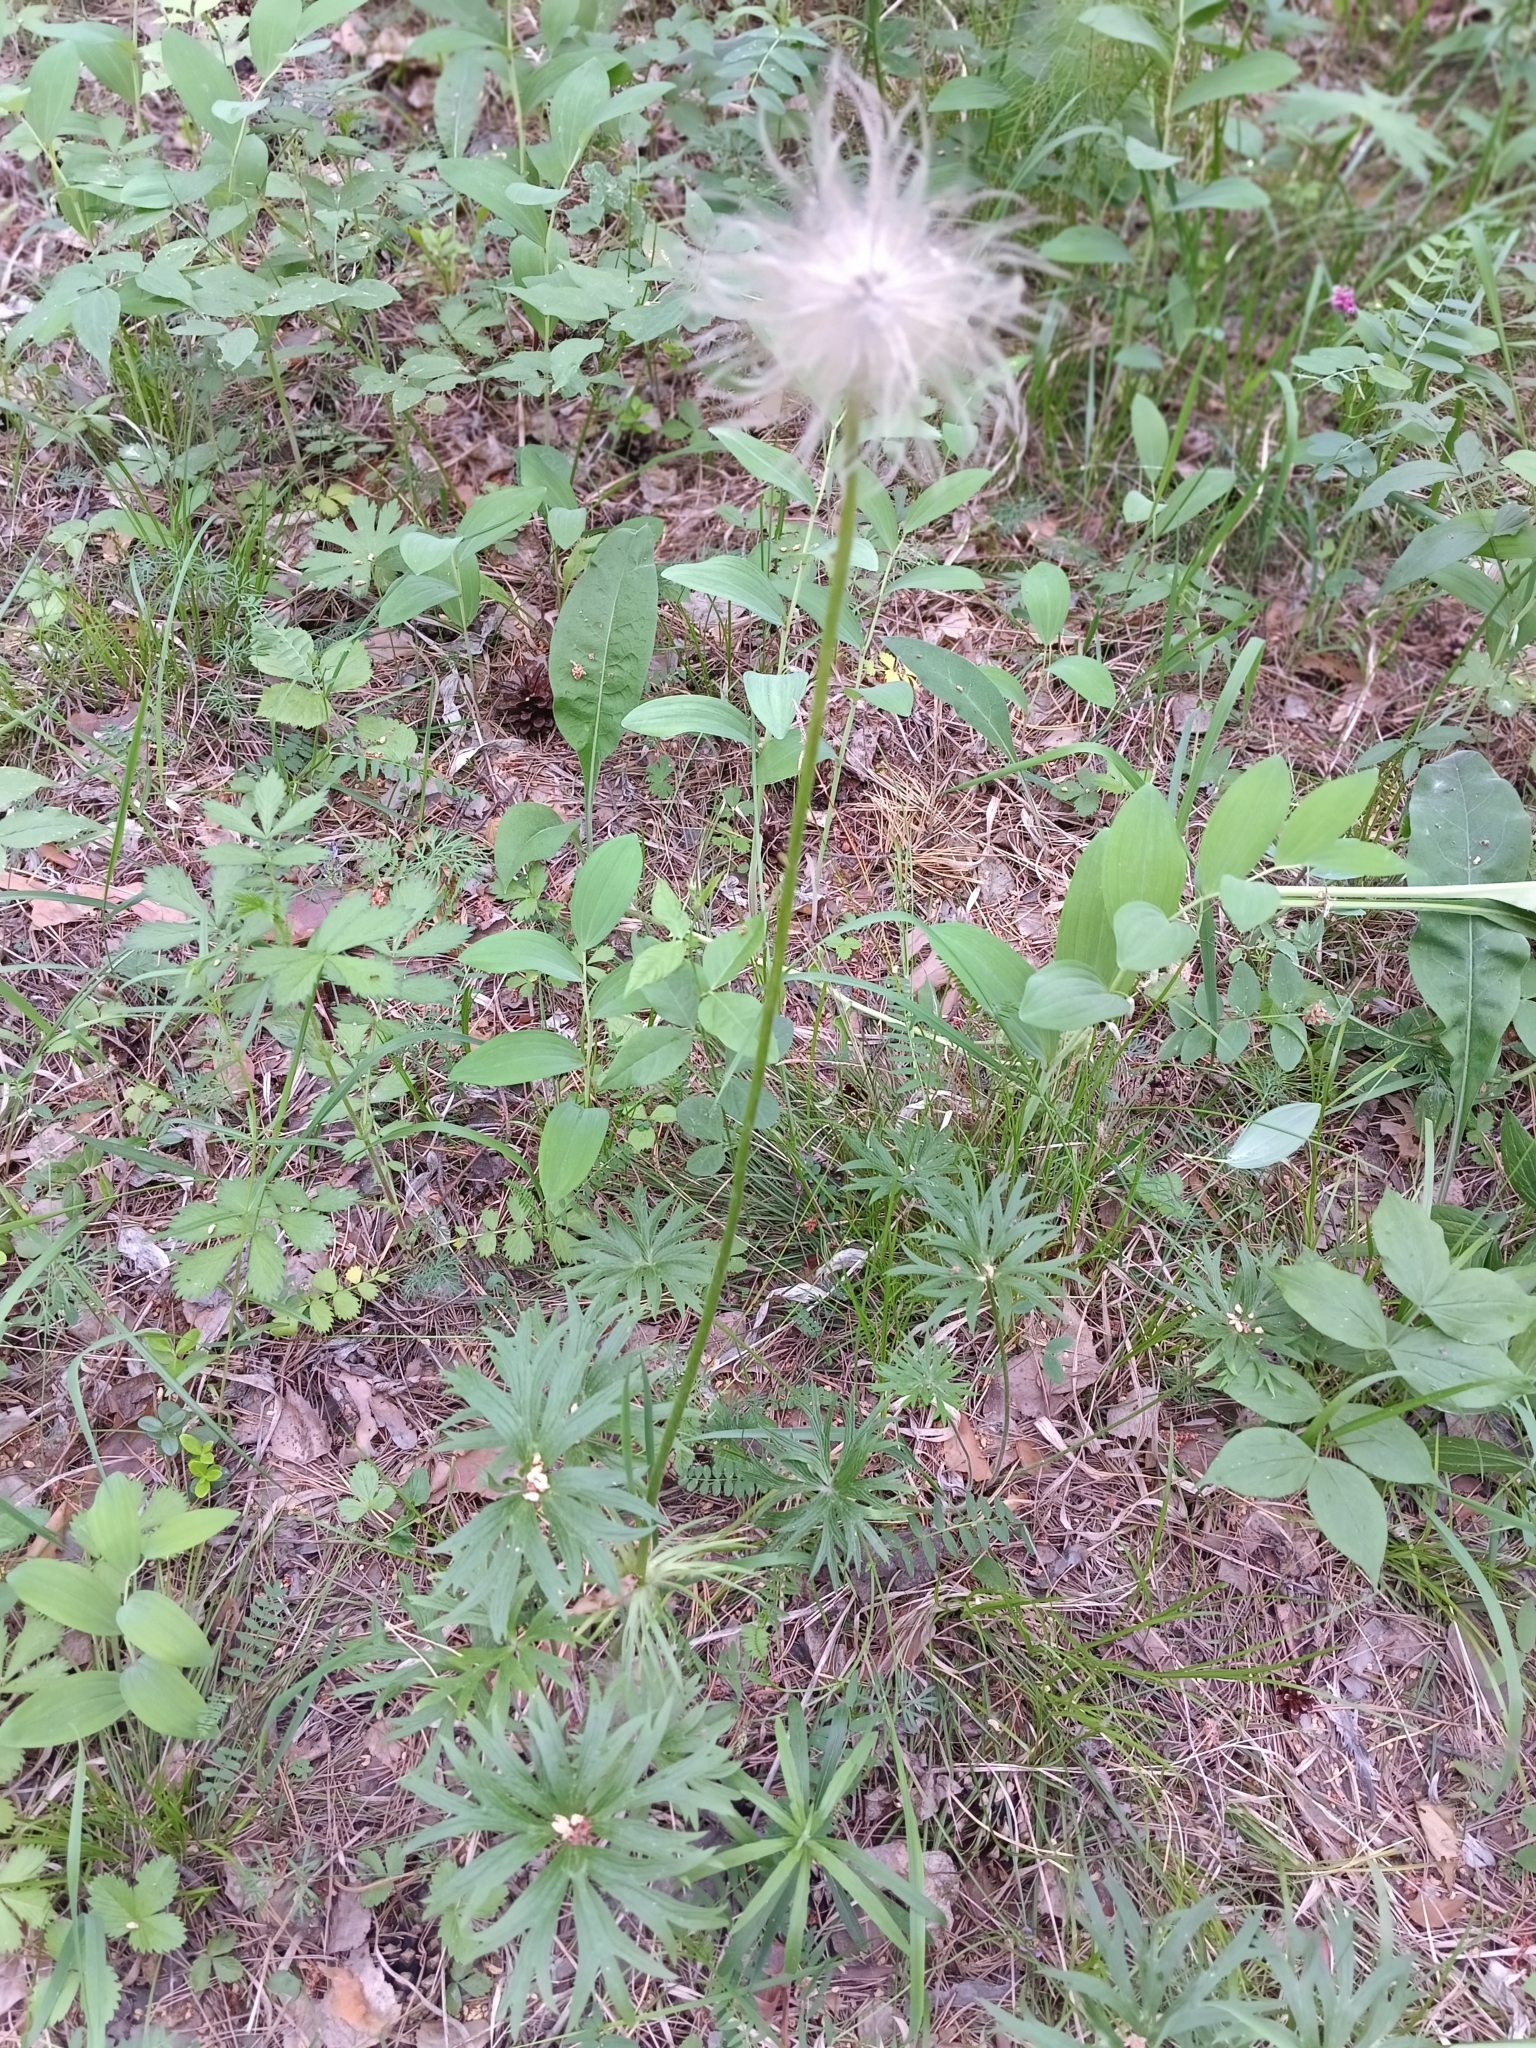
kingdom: Plantae
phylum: Tracheophyta
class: Magnoliopsida
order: Ranunculales
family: Ranunculaceae
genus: Pulsatilla
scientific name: Pulsatilla patens
